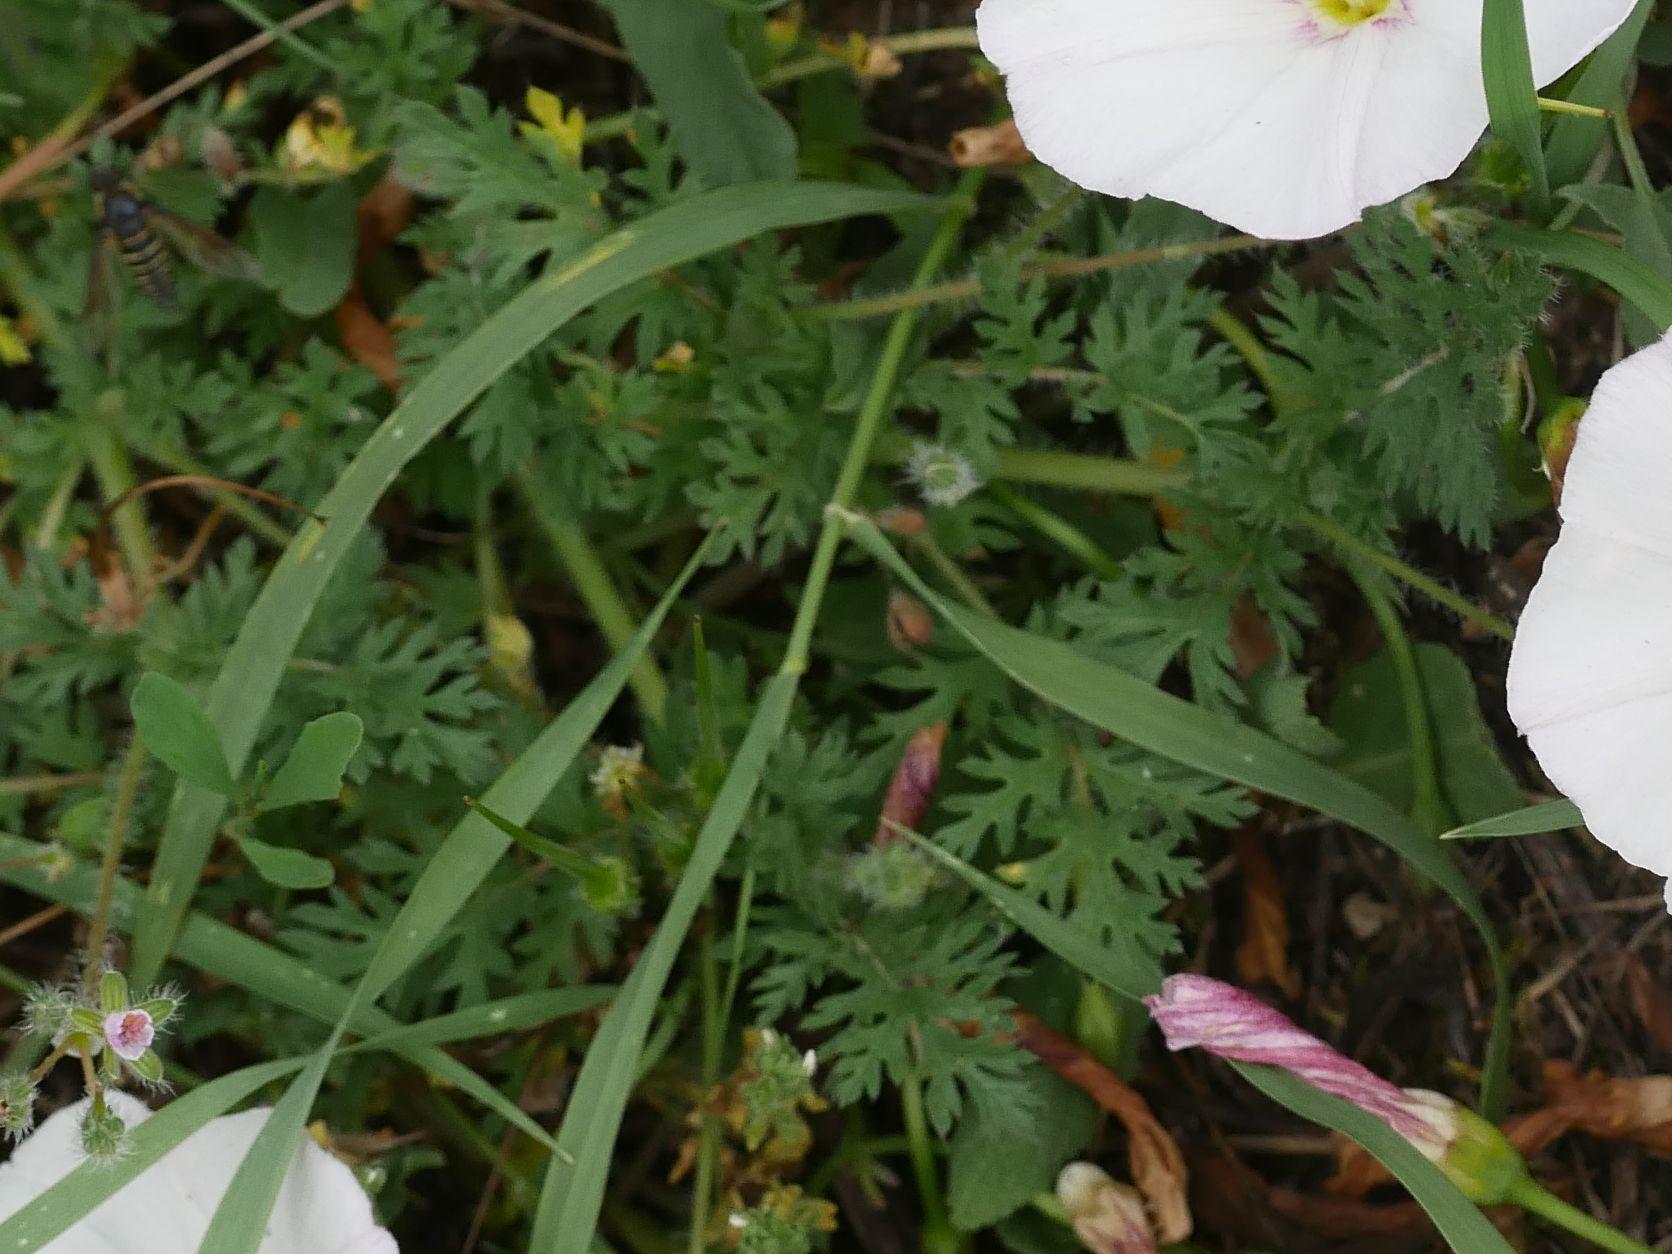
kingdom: Plantae
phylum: Tracheophyta
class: Magnoliopsida
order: Geraniales
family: Geraniaceae
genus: Erodium
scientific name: Erodium cicutarium
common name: Common stork's-bill
